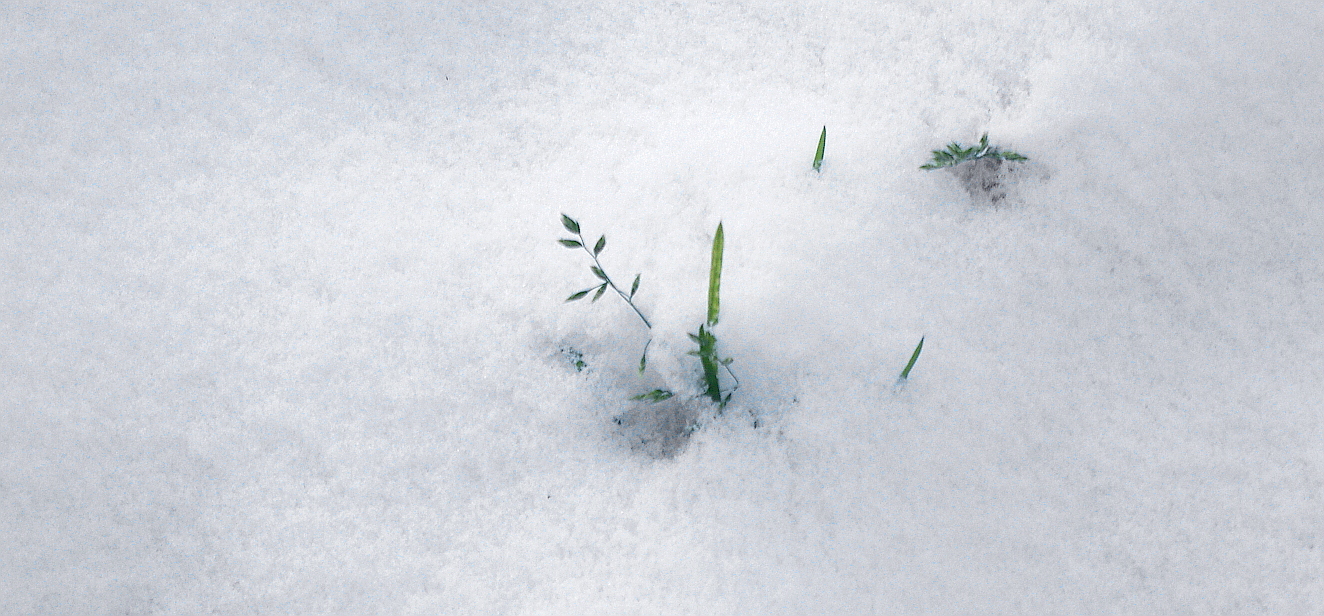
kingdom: Plantae
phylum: Tracheophyta
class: Liliopsida
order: Poales
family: Poaceae
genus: Poa
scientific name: Poa annua
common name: Annual bluegrass
